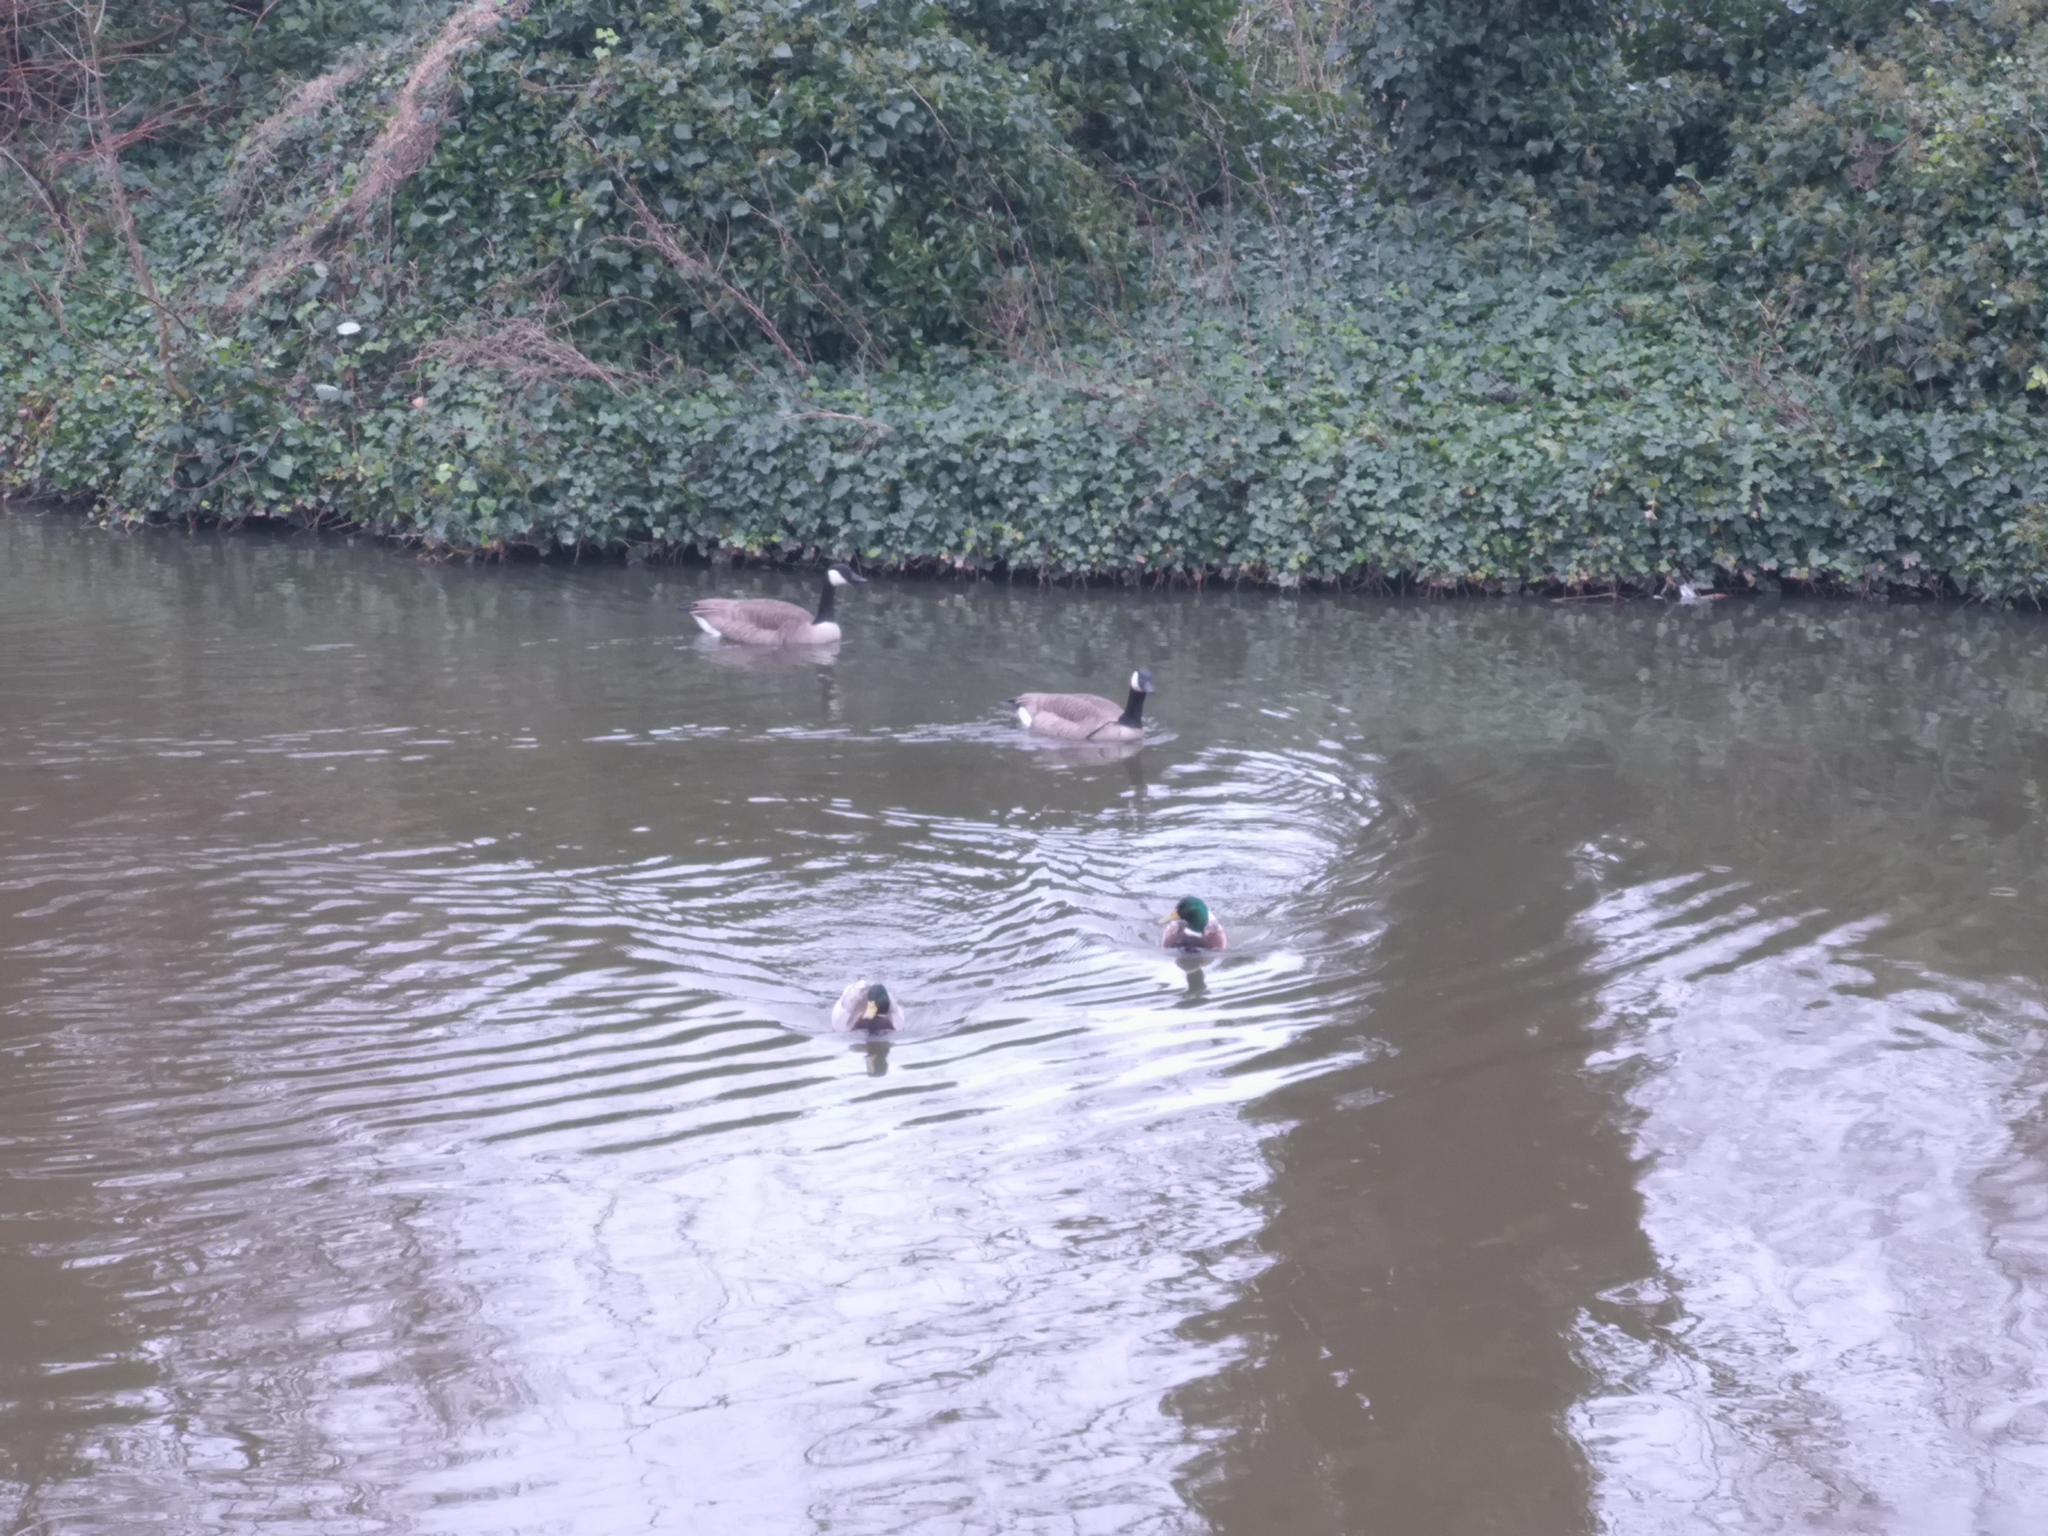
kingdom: Animalia
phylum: Chordata
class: Aves
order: Anseriformes
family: Anatidae
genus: Branta
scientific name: Branta canadensis
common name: Canada goose
